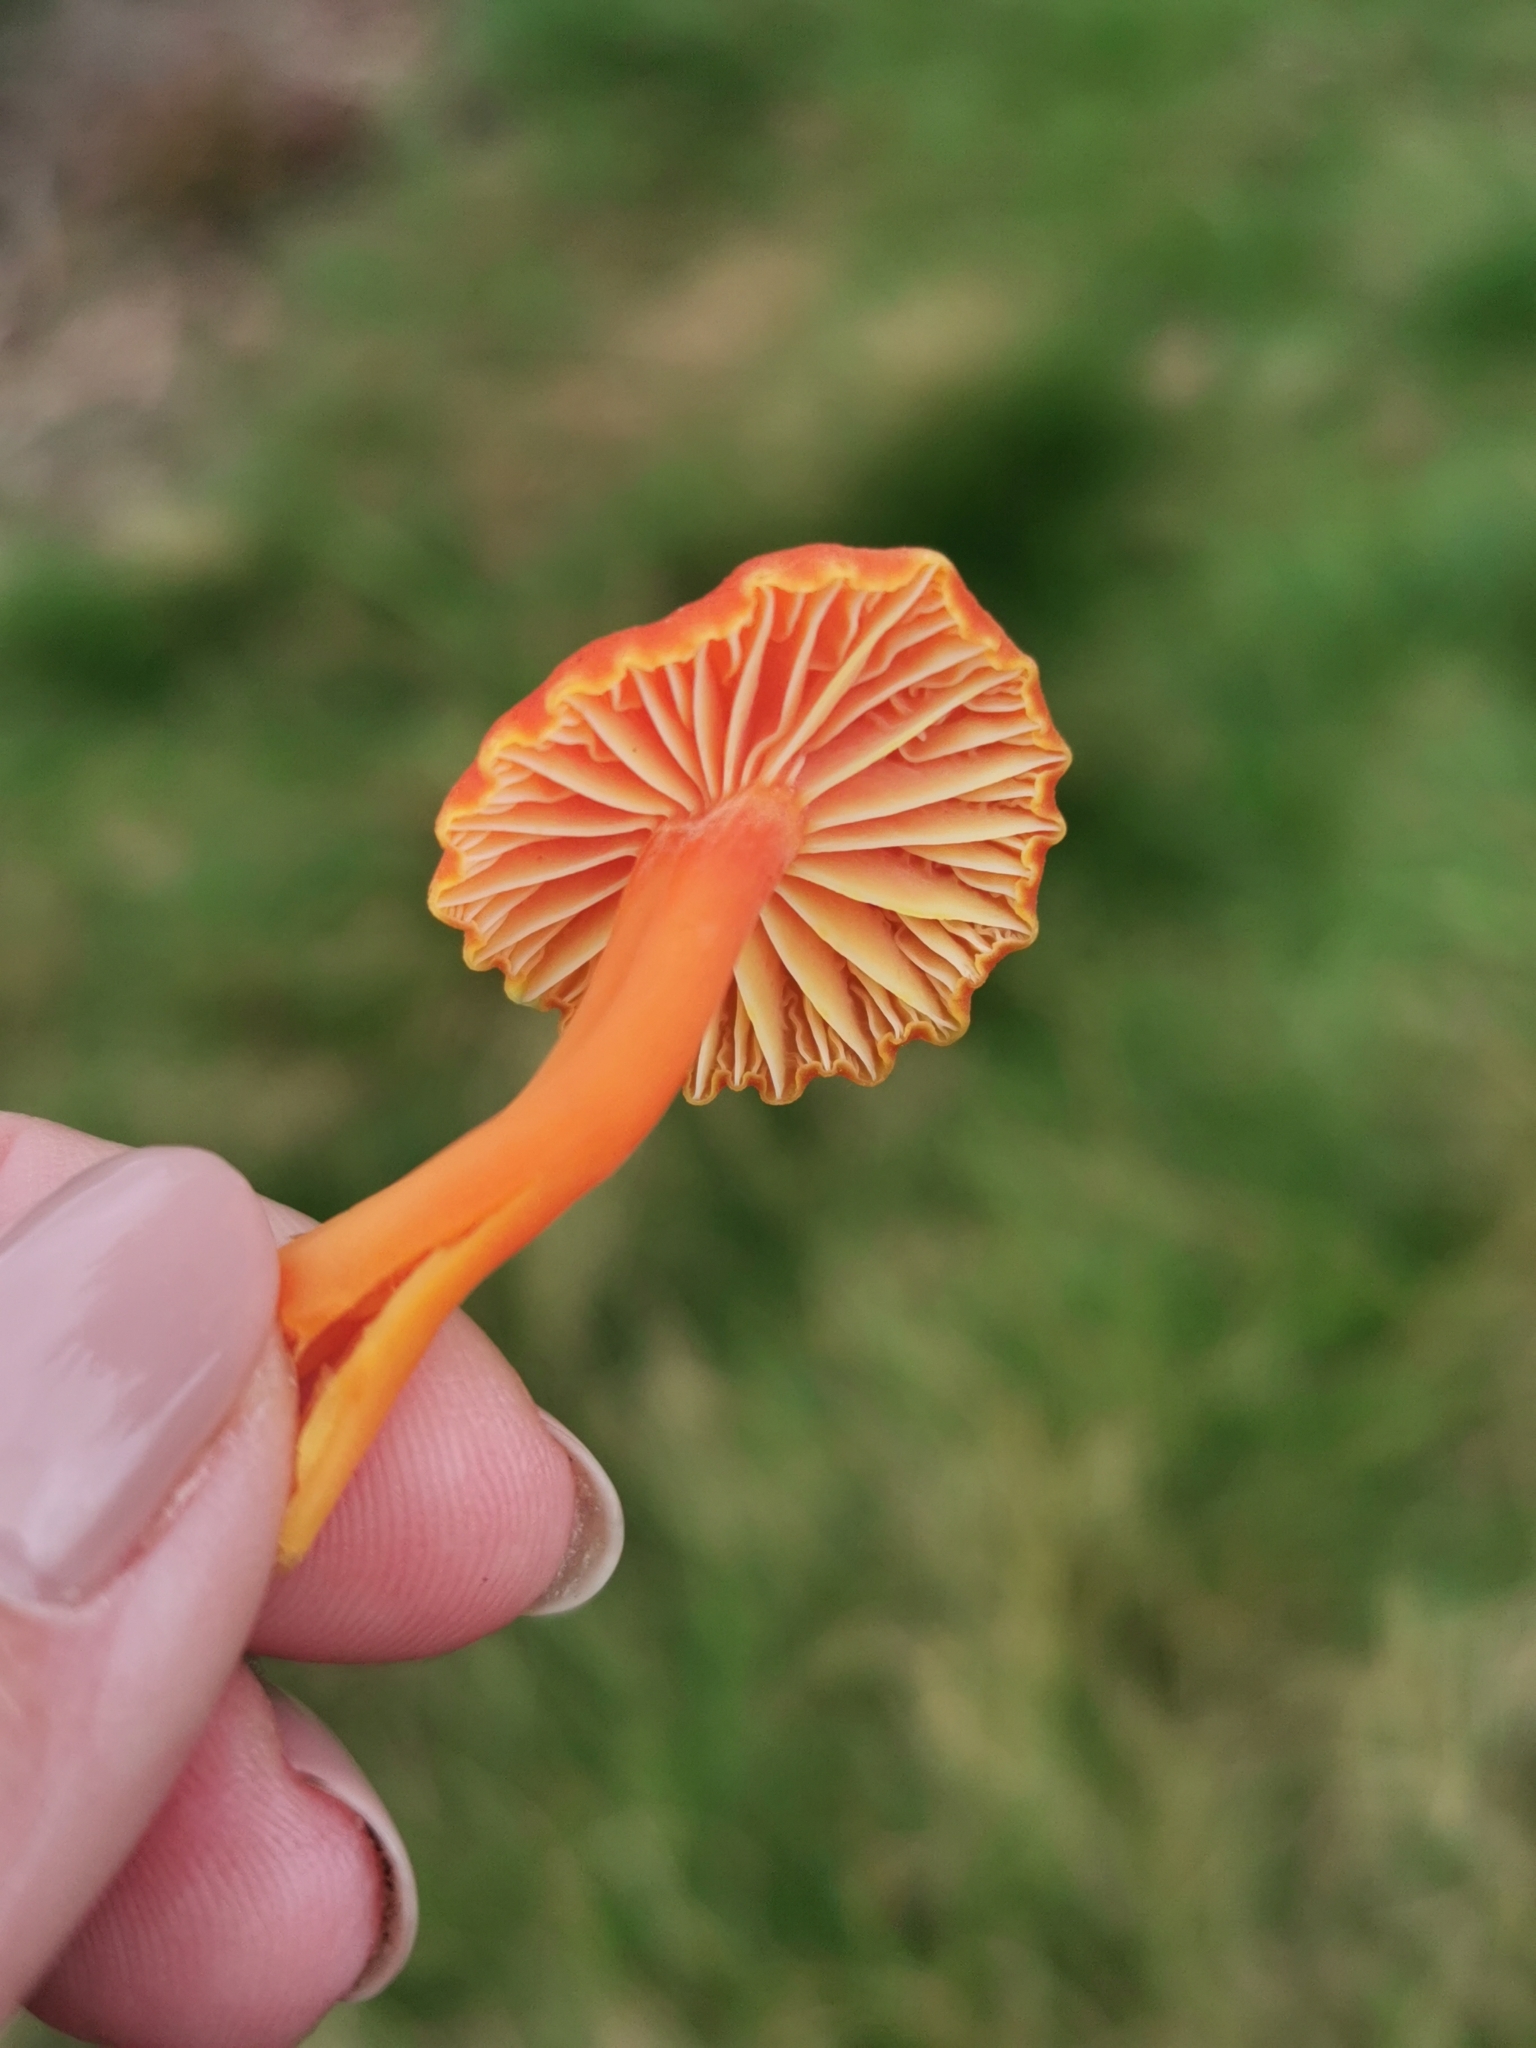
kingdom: Fungi
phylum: Basidiomycota
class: Agaricomycetes
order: Agaricales
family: Hygrophoraceae
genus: Hygrocybe
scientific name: Hygrocybe reidii
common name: Honey waxcap
